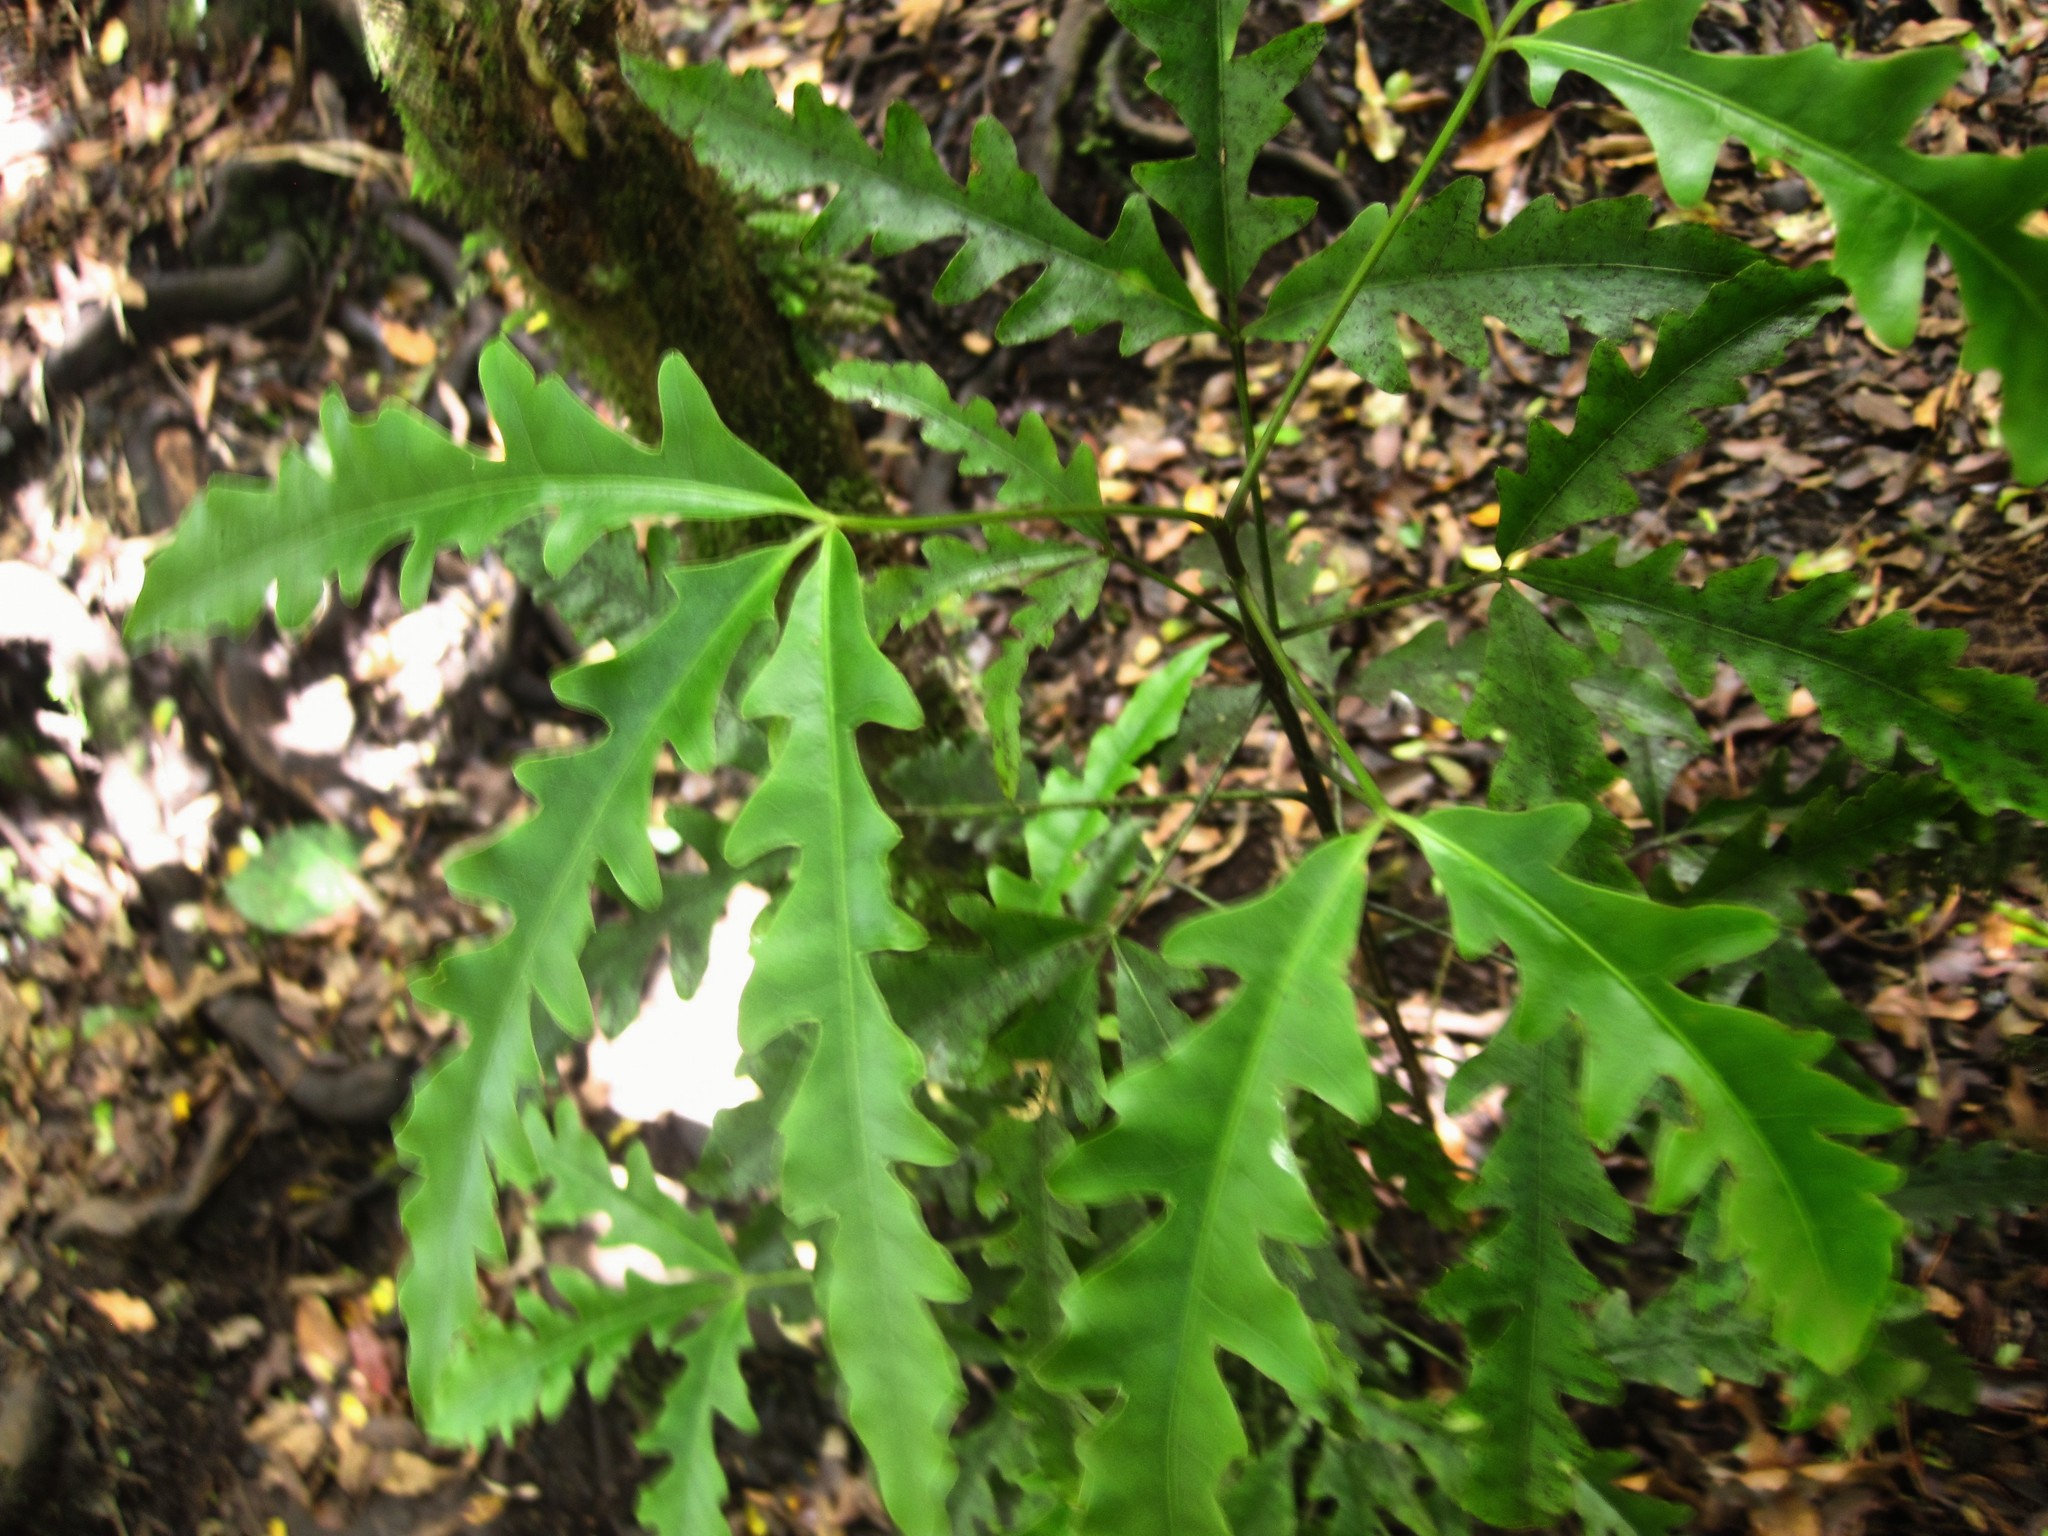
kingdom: Plantae
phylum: Tracheophyta
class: Magnoliopsida
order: Apiales
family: Araliaceae
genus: Raukaua
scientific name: Raukaua edgerleyi
